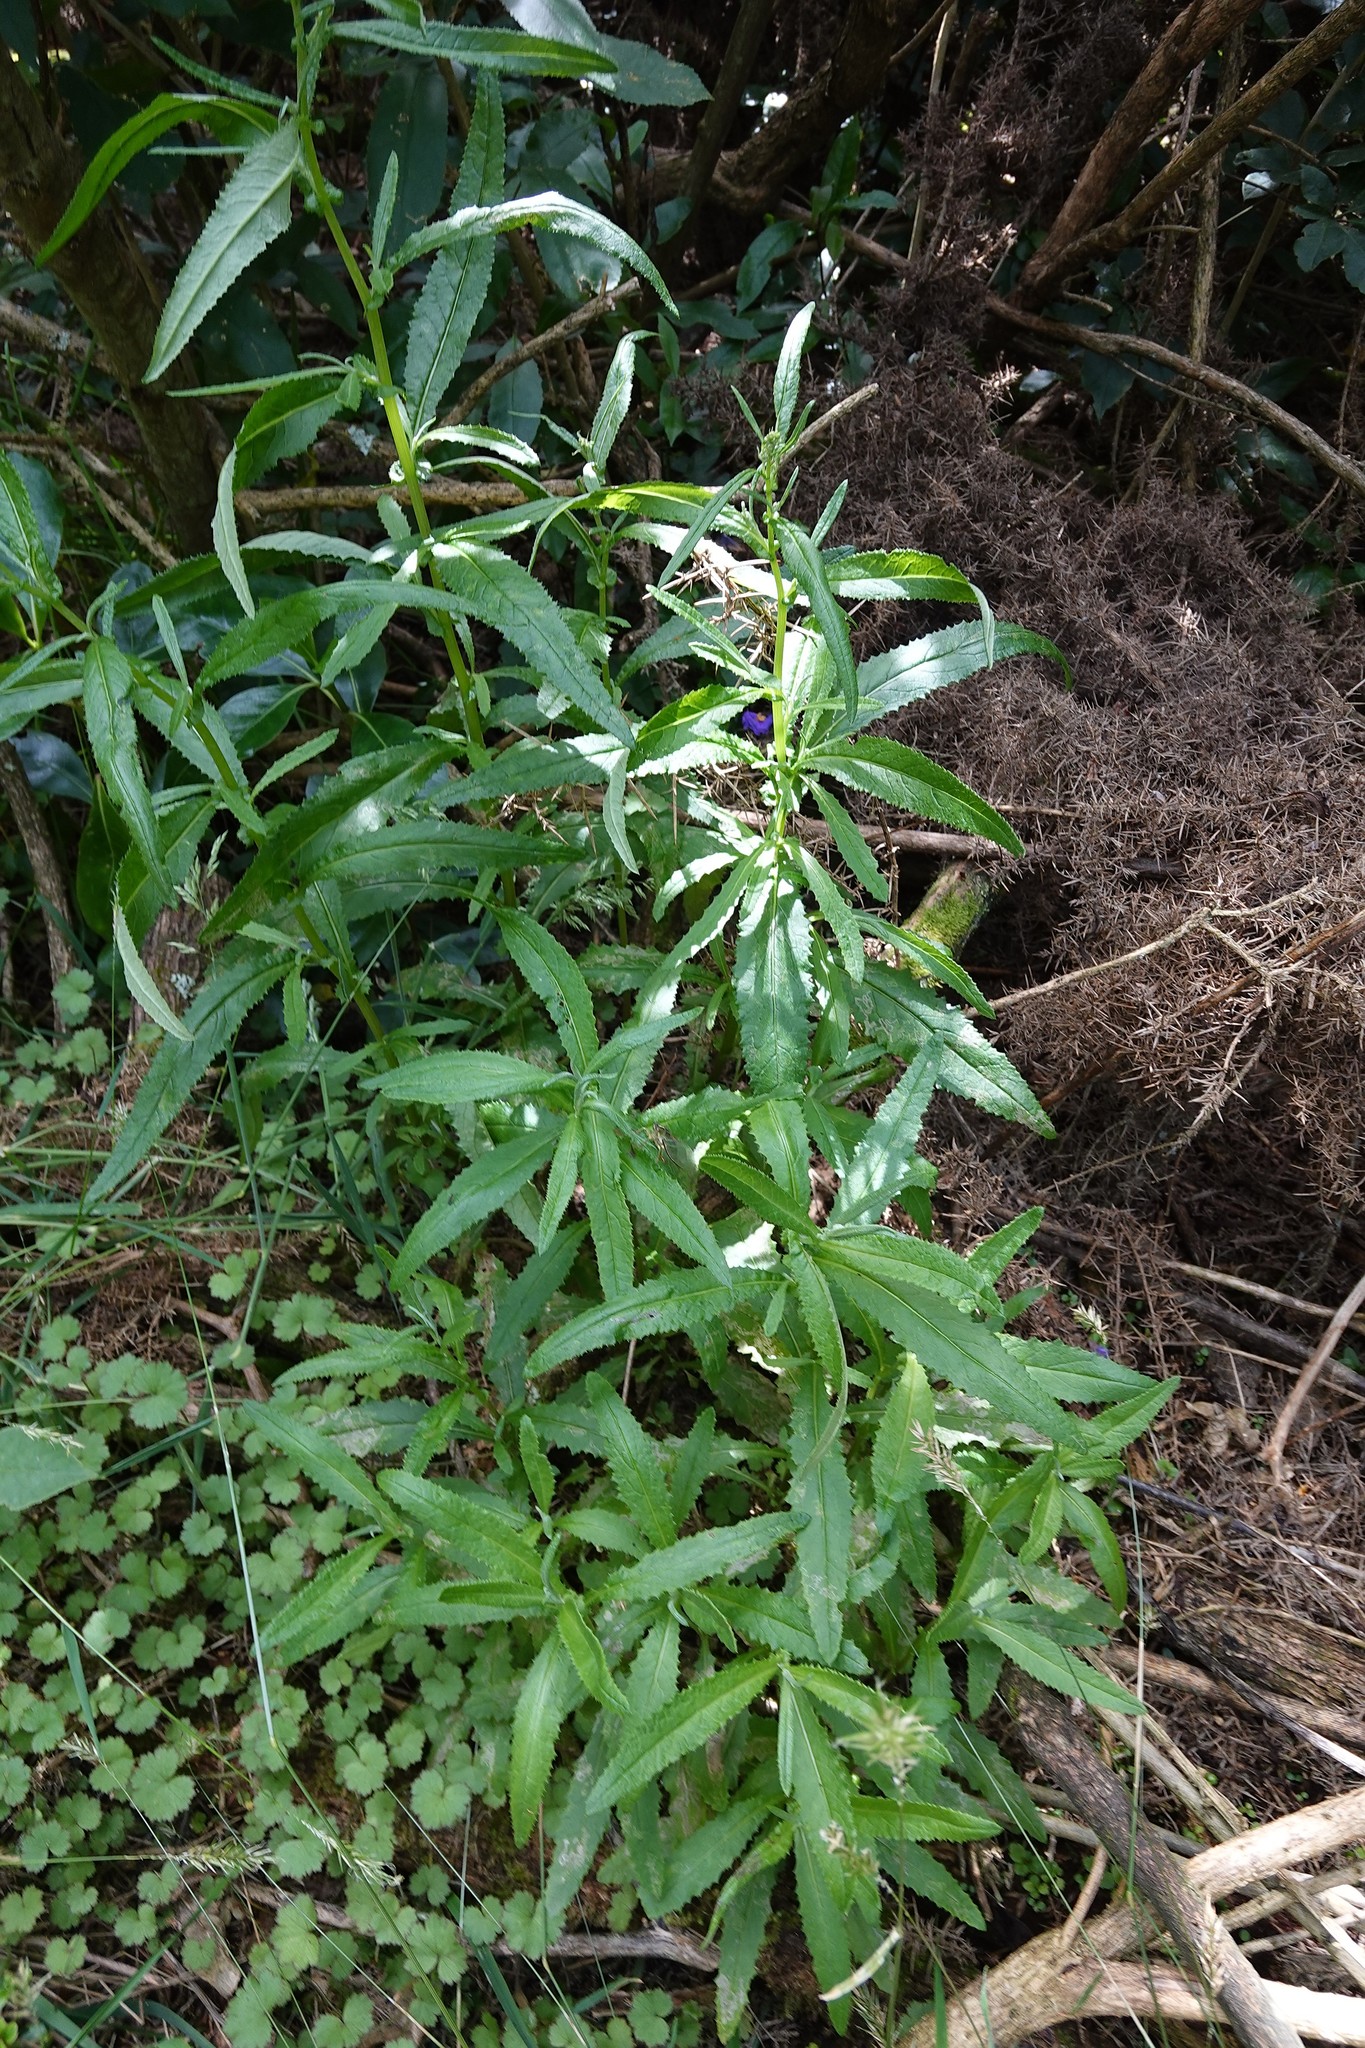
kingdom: Plantae
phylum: Tracheophyta
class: Magnoliopsida
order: Asterales
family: Asteraceae
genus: Senecio
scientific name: Senecio minimus
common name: Toothed fireweed
